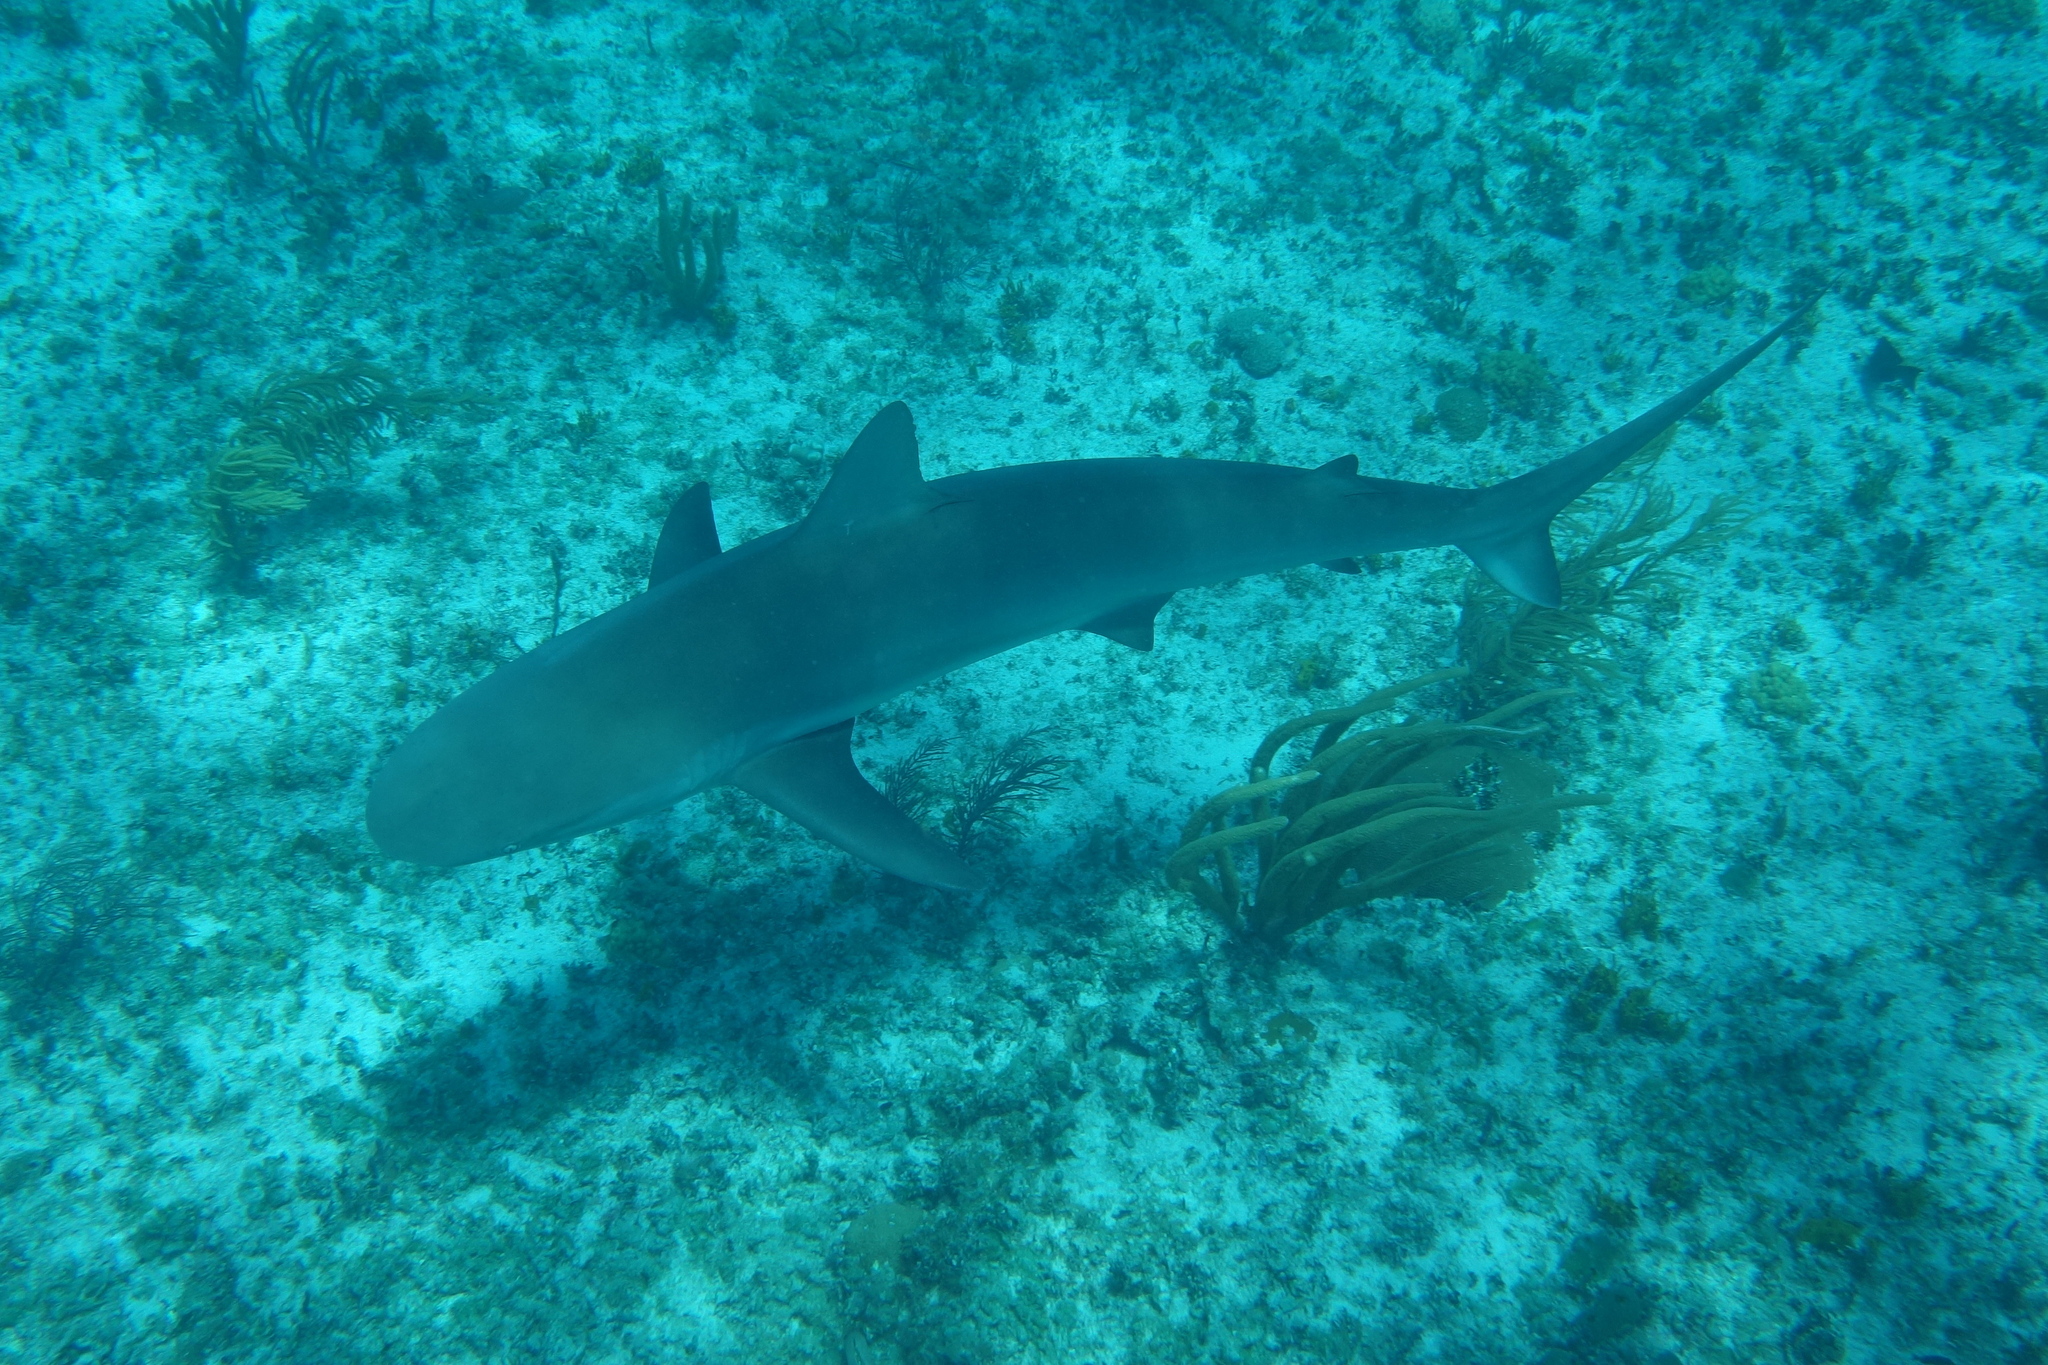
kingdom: Animalia
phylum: Chordata
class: Elasmobranchii
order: Carcharhiniformes
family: Carcharhinidae
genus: Carcharhinus
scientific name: Carcharhinus perezii
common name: Reef shark
